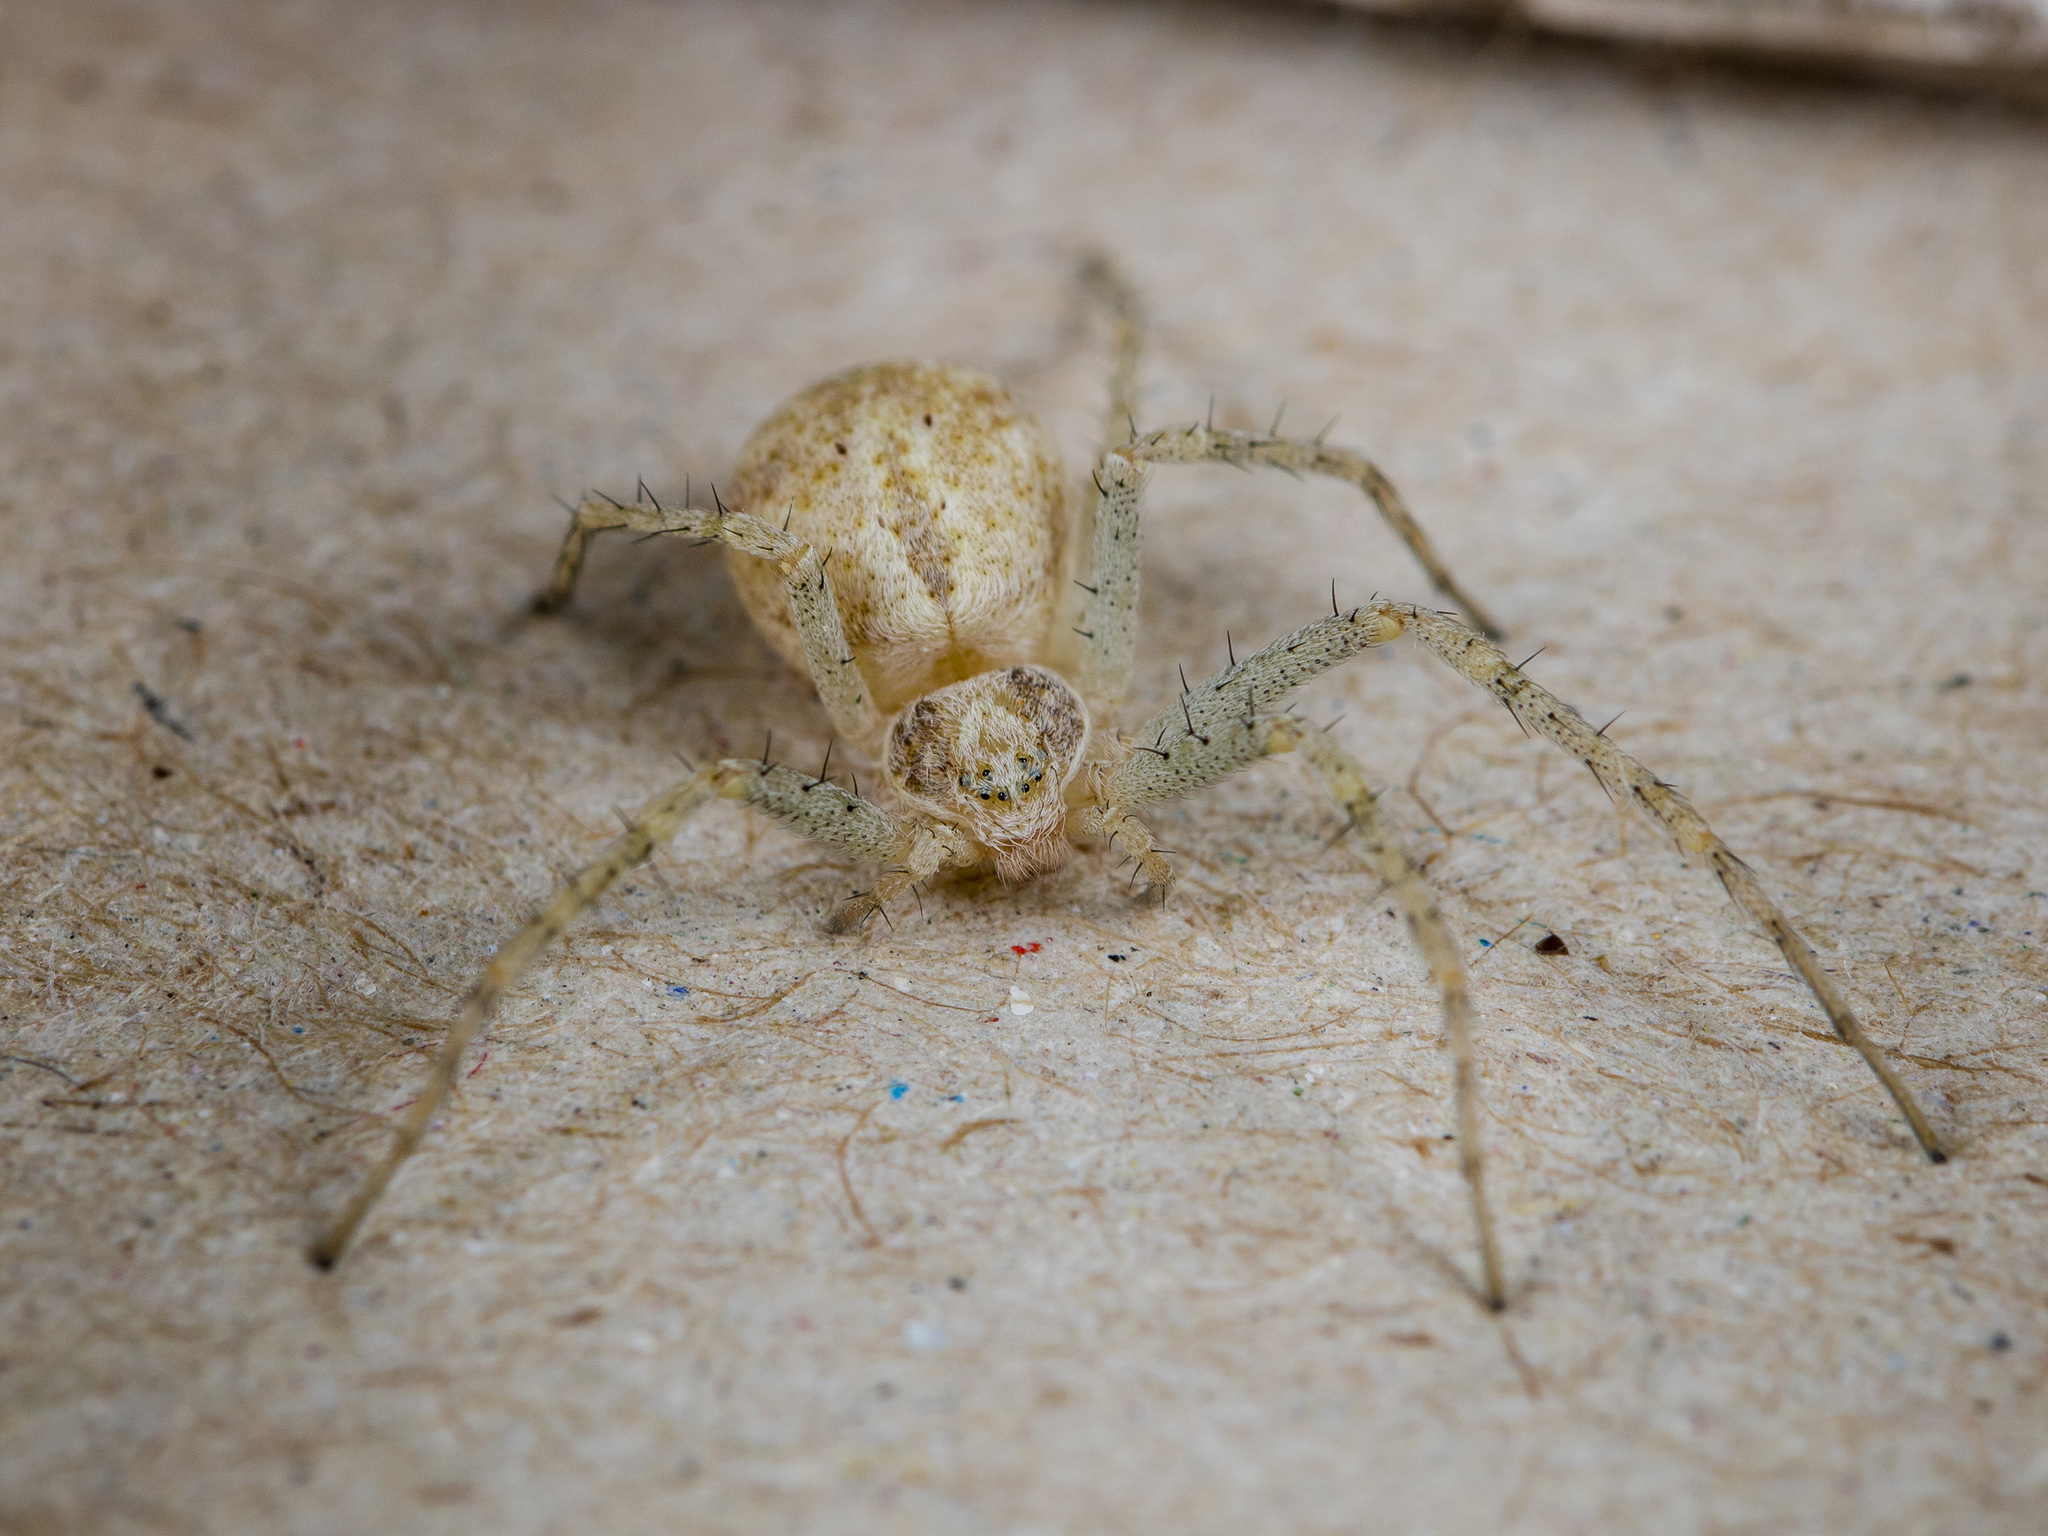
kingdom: Animalia
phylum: Arthropoda
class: Arachnida
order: Araneae
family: Philodromidae
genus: Philodromus
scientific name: Philodromus longipalpis
